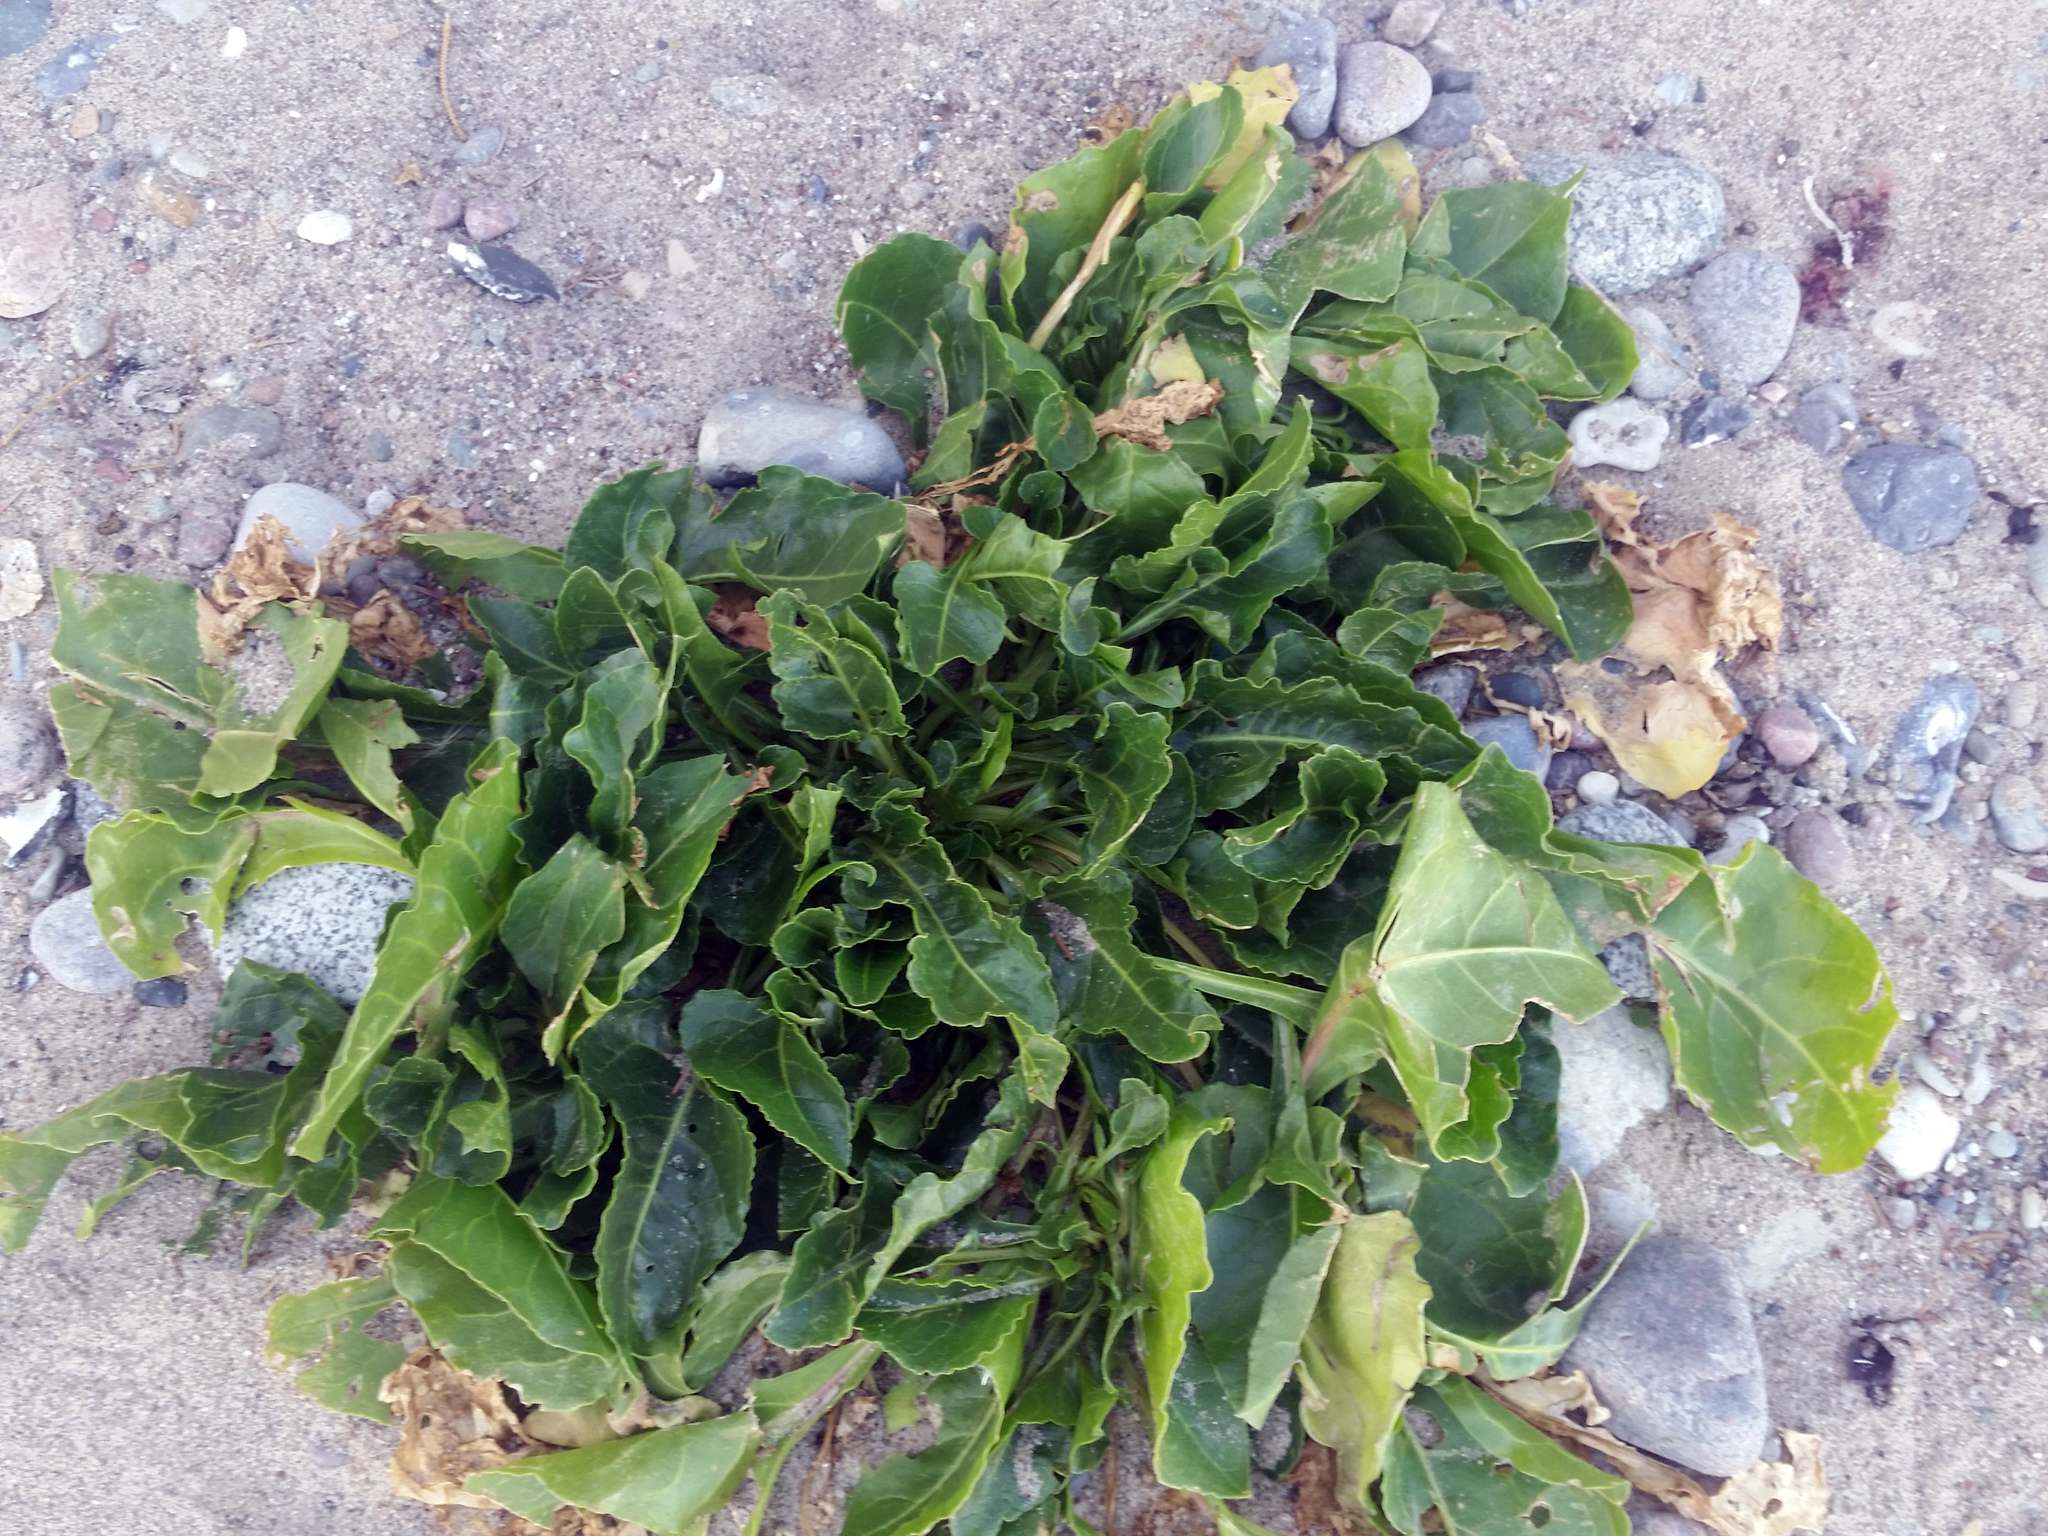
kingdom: Plantae
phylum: Tracheophyta
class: Magnoliopsida
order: Caryophyllales
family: Amaranthaceae
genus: Beta
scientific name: Beta vulgaris
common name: Beet
